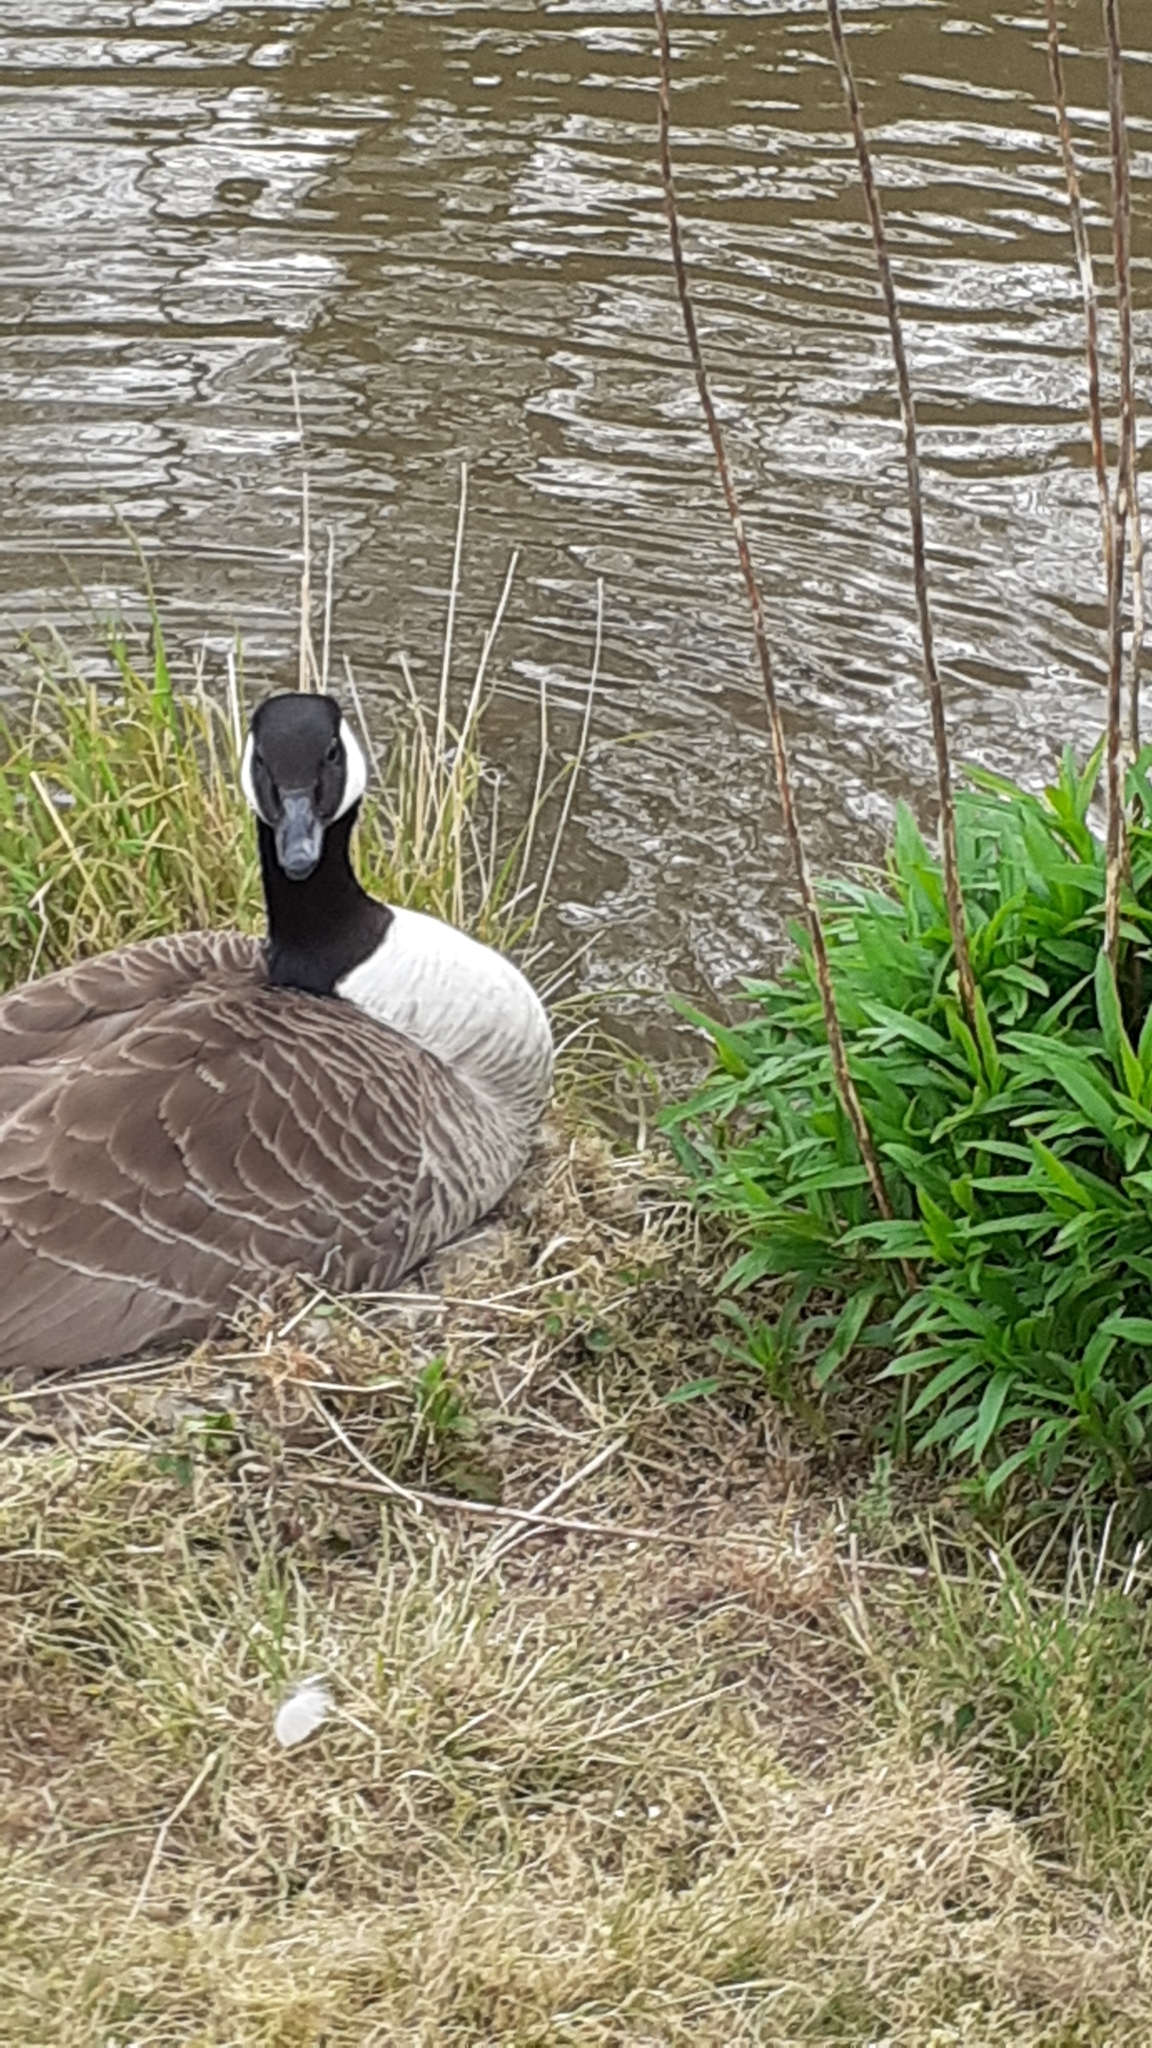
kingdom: Animalia
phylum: Chordata
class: Aves
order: Anseriformes
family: Anatidae
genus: Branta
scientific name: Branta canadensis
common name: Canada goose
